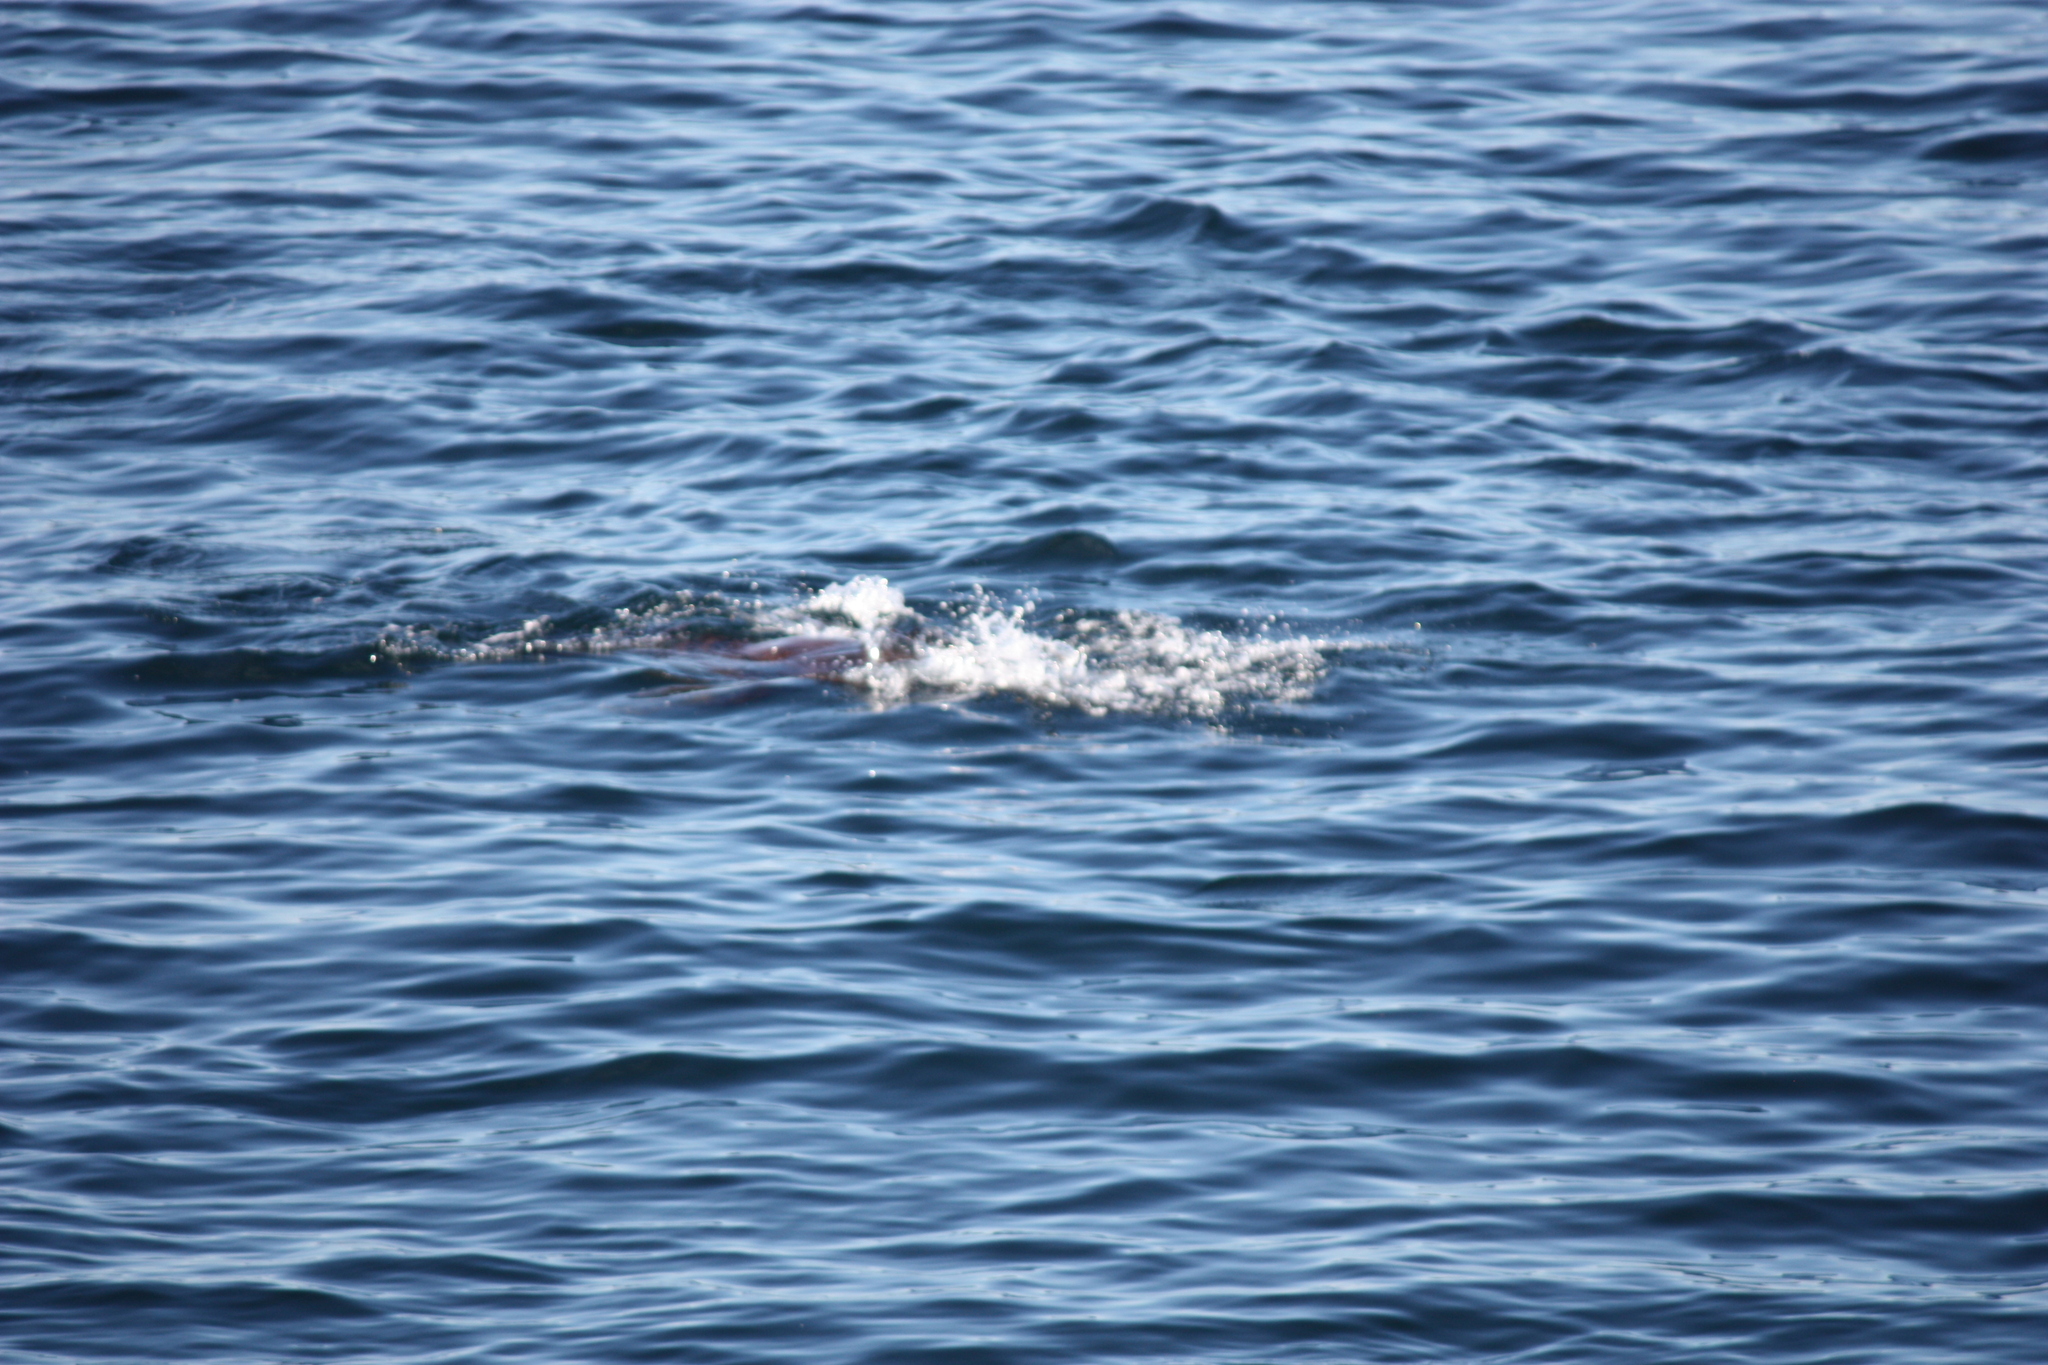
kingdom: Animalia
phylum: Chordata
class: Mammalia
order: Carnivora
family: Otariidae
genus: Eumetopias
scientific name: Eumetopias jubatus
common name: Steller sea lion
